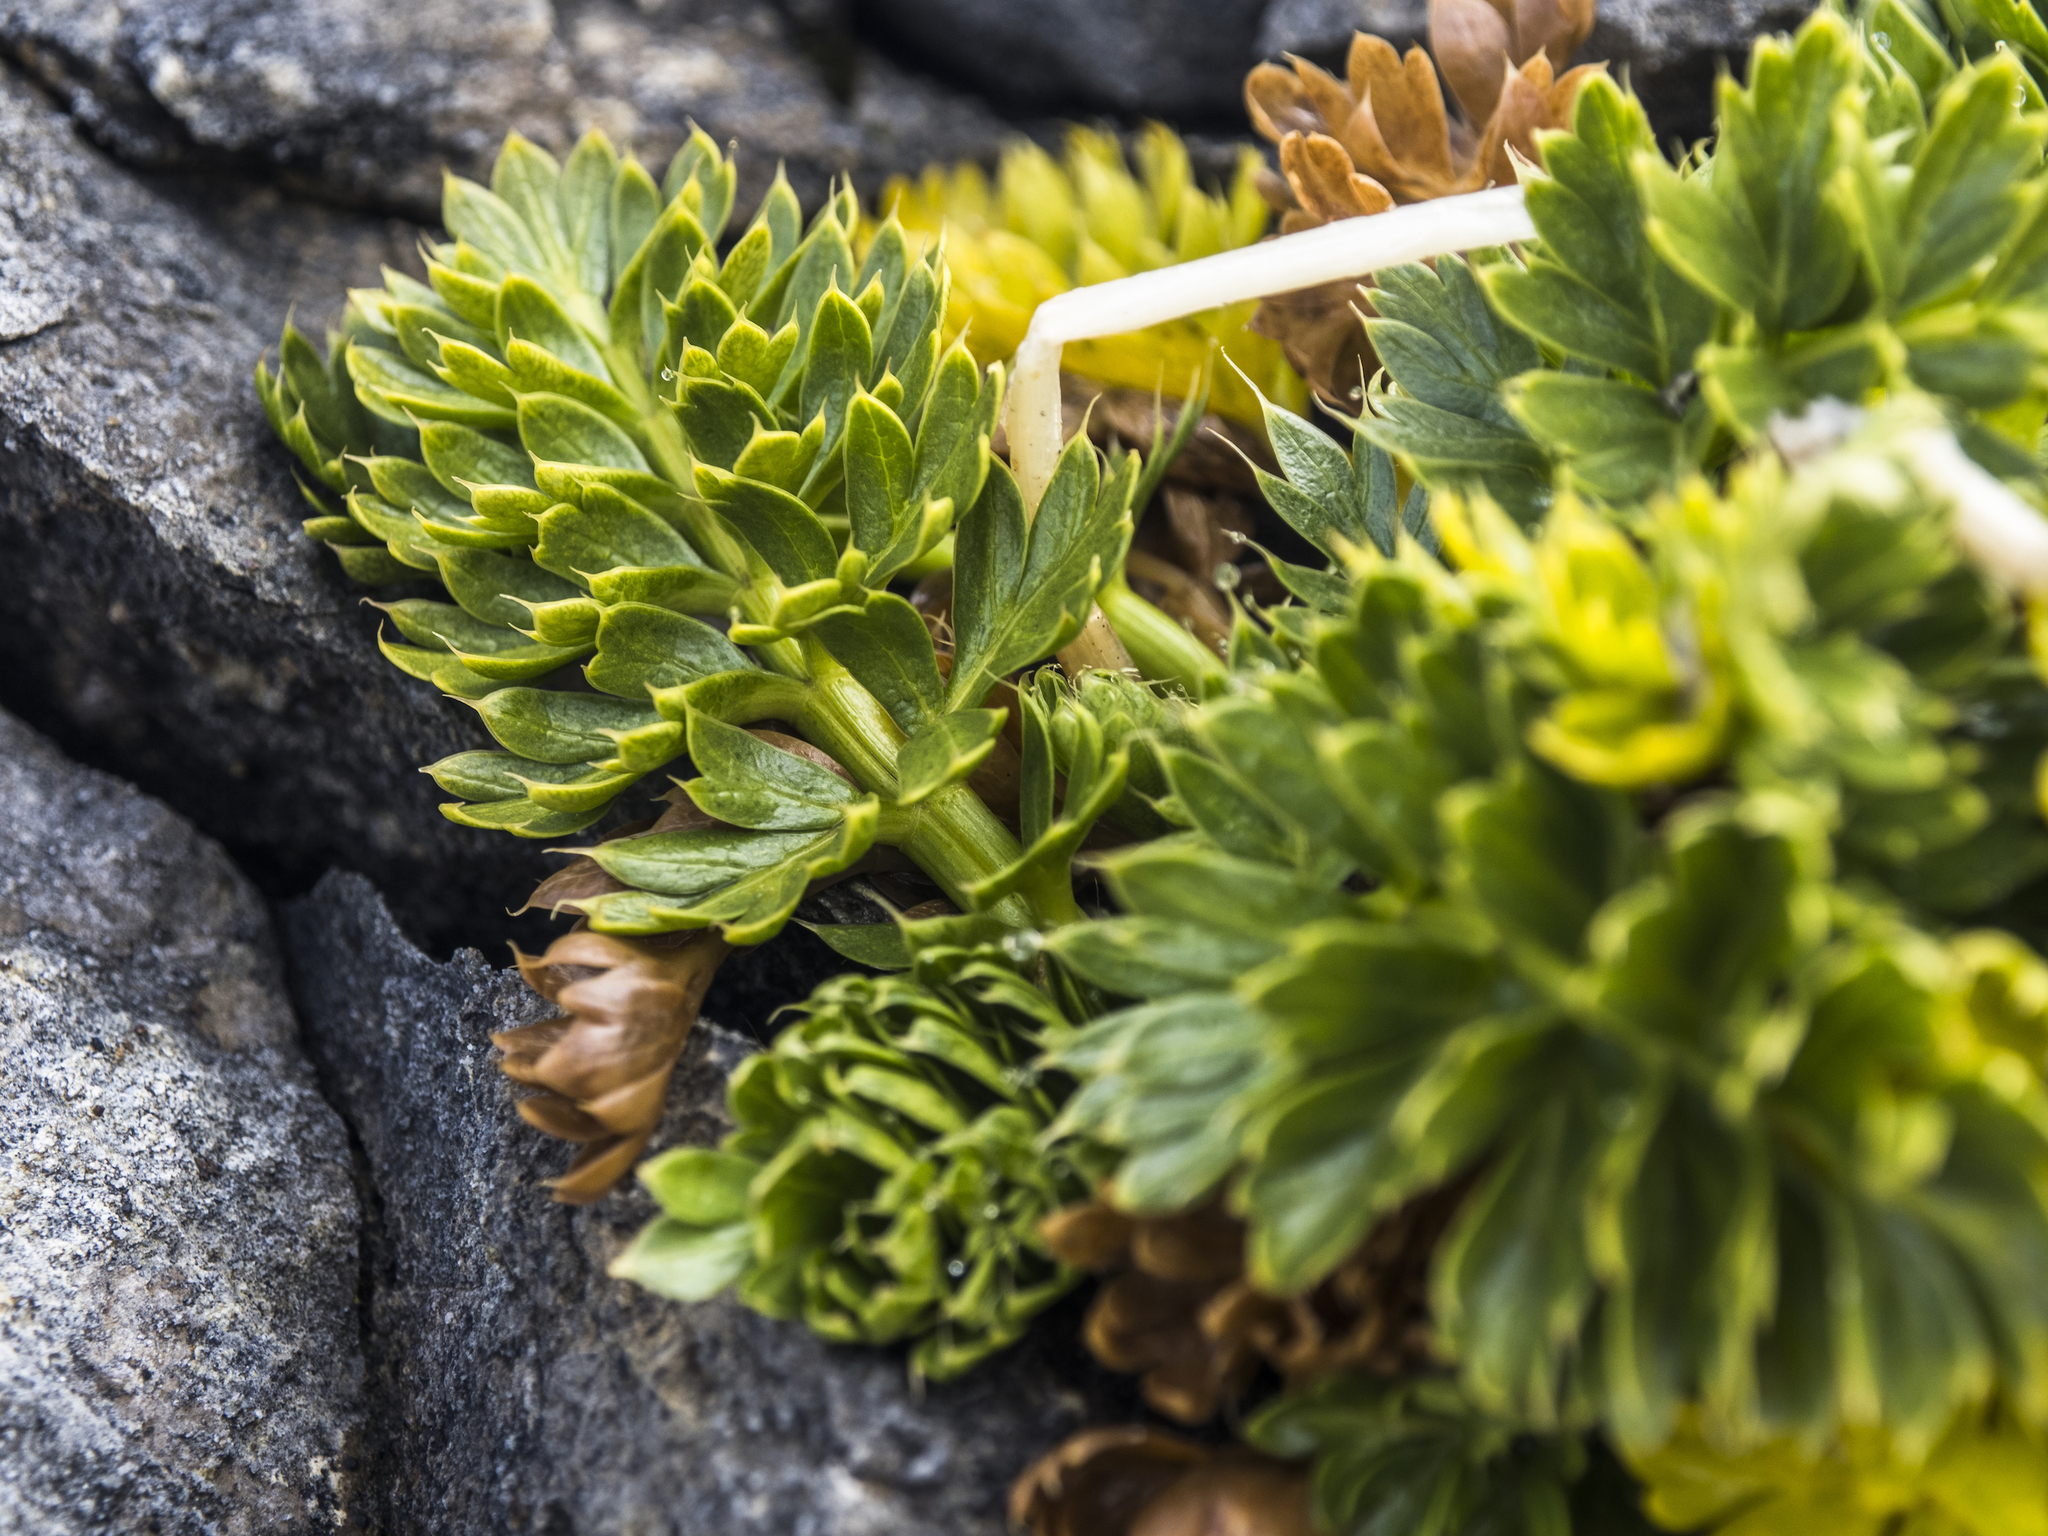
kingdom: Plantae
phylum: Tracheophyta
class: Magnoliopsida
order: Apiales
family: Apiaceae
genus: Anisotome
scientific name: Anisotome pilifera
